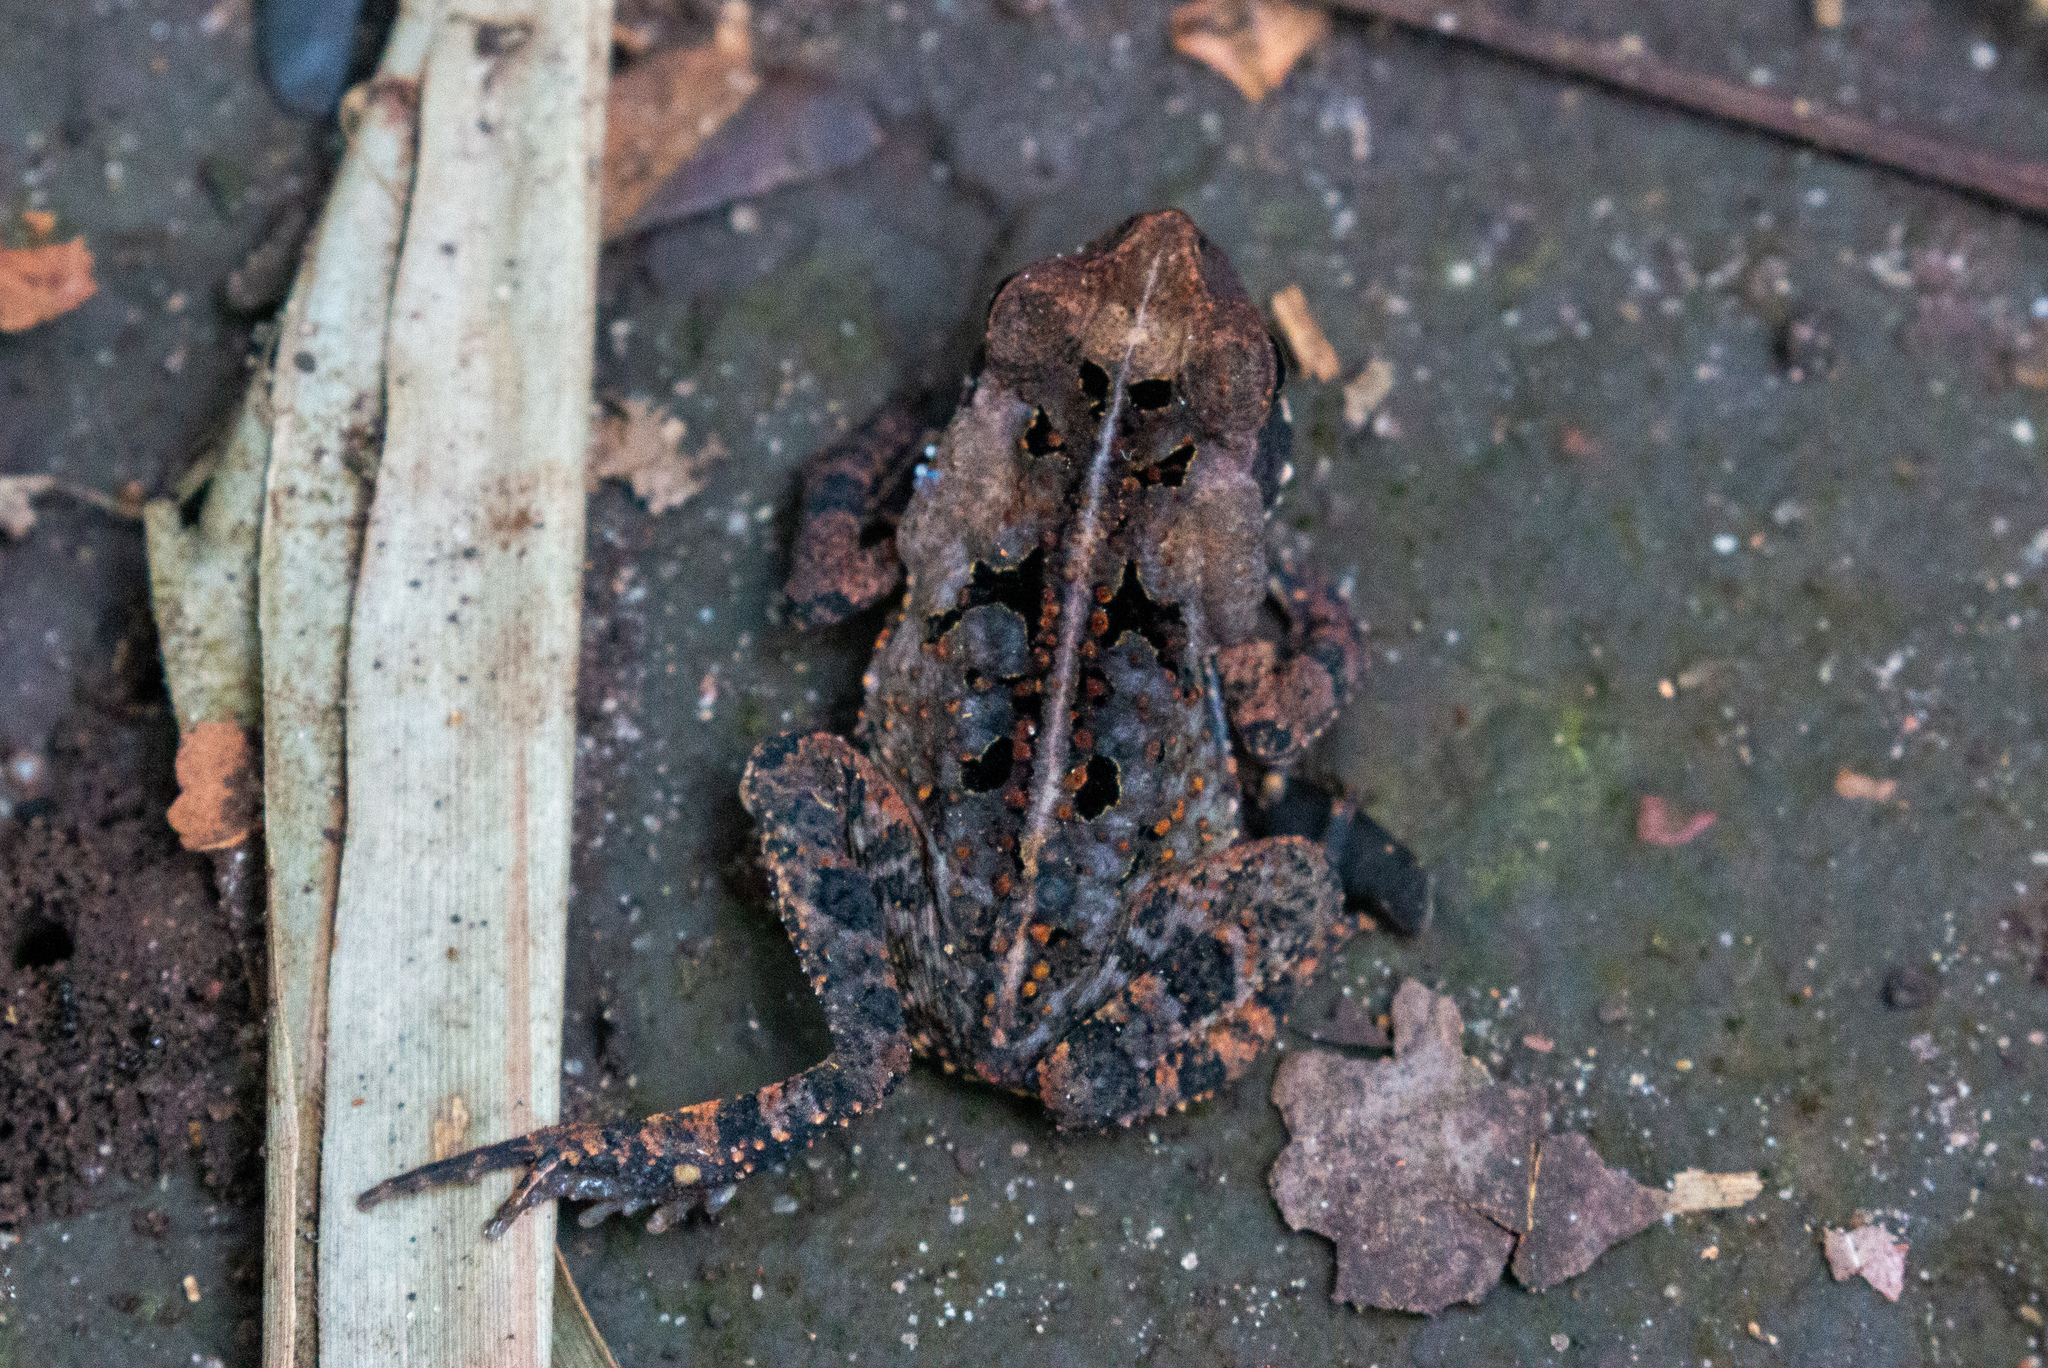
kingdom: Animalia
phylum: Chordata
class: Amphibia
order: Anura
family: Bufonidae
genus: Rhinella
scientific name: Rhinella crucifer
